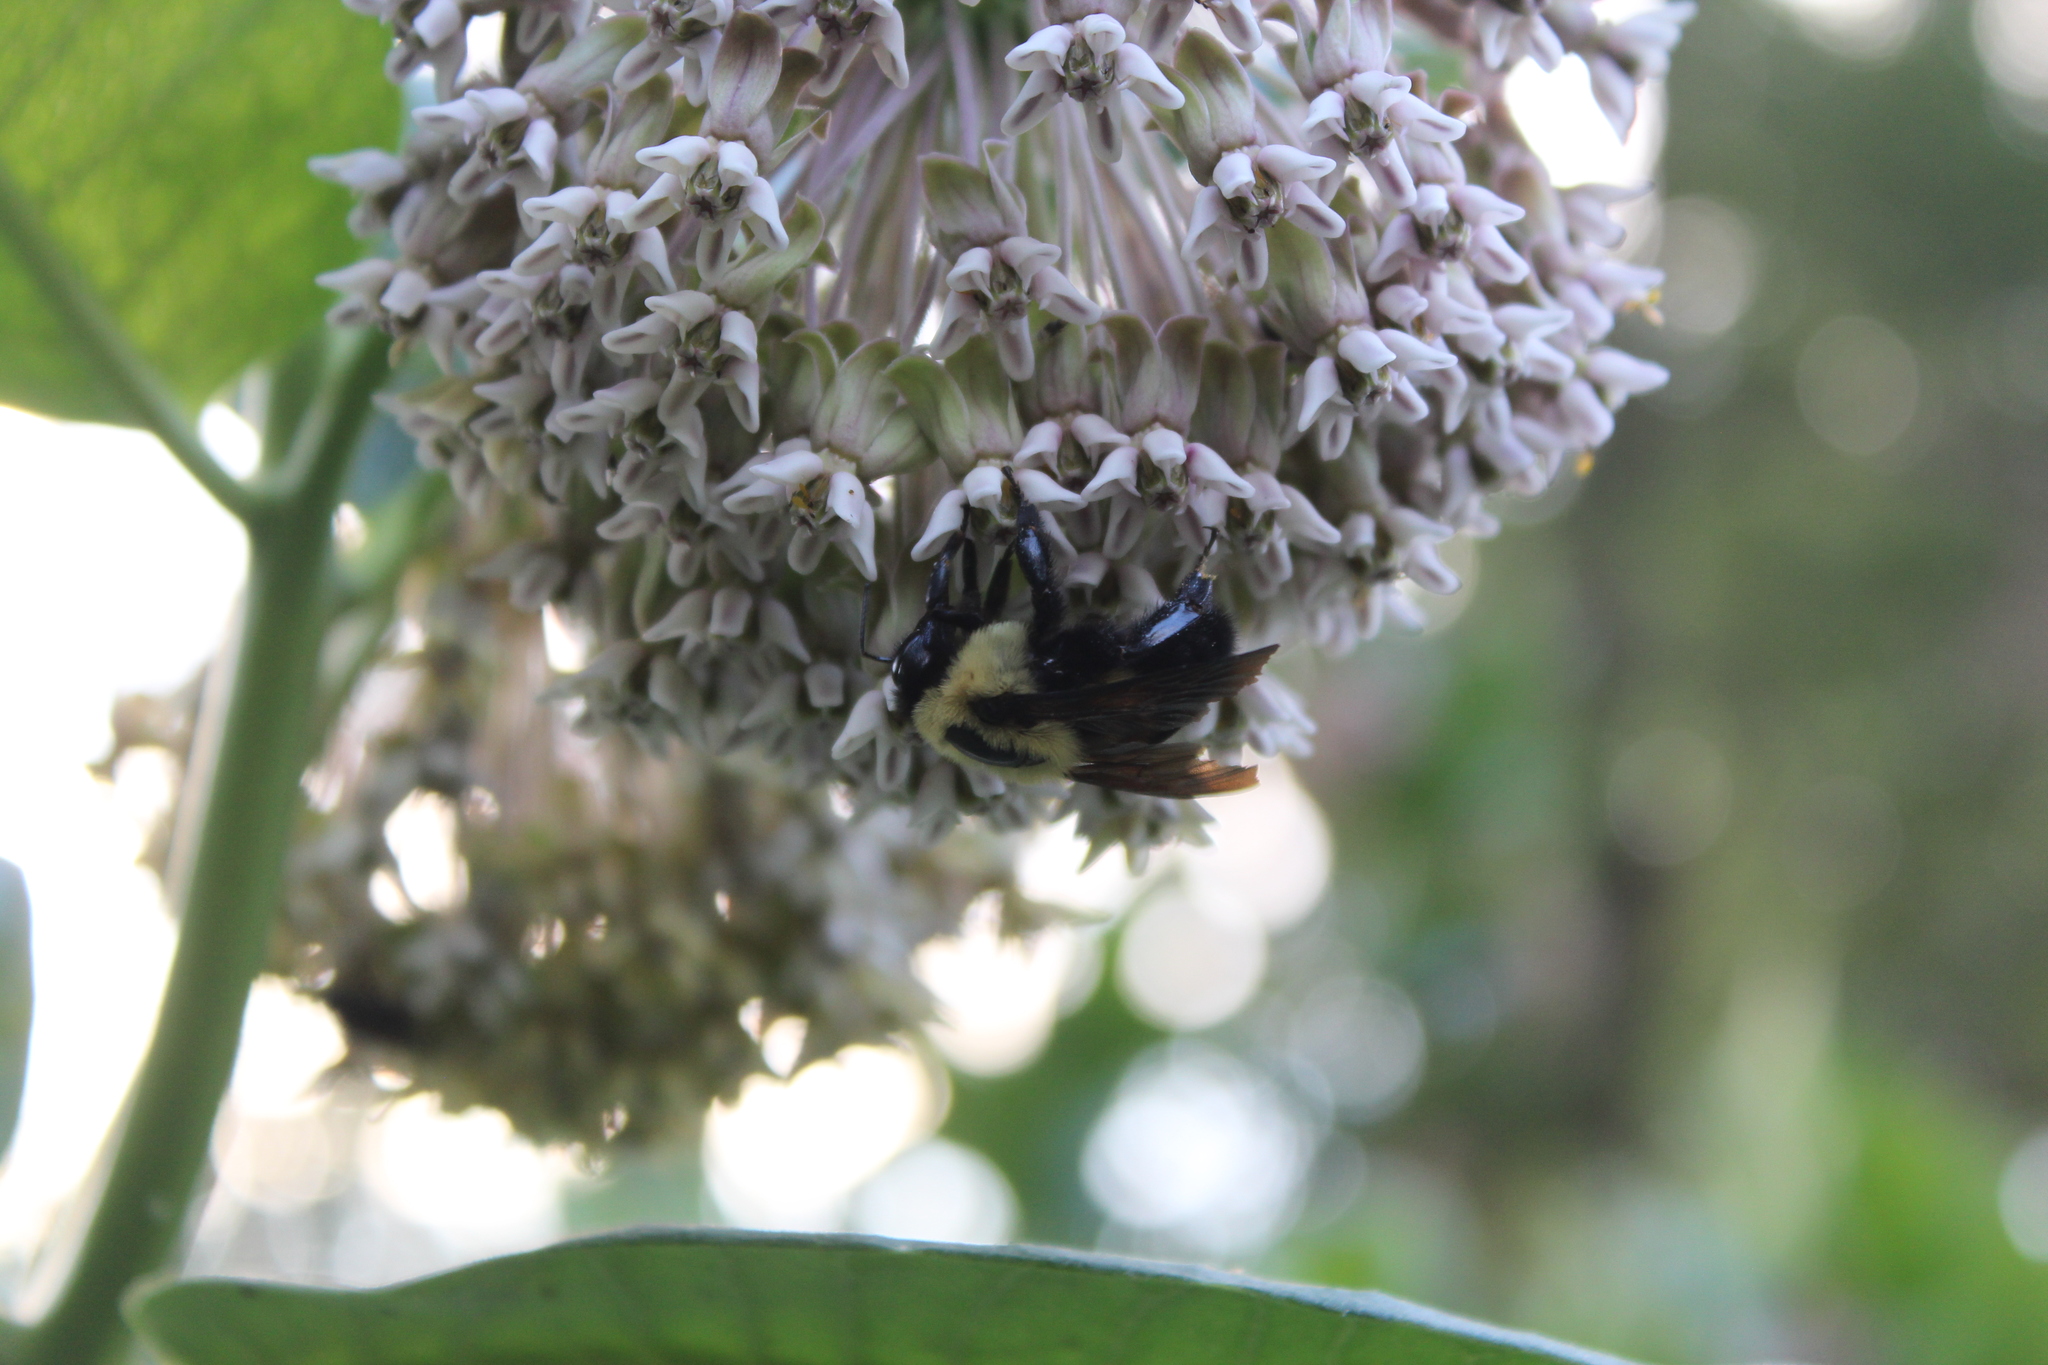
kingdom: Animalia
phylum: Arthropoda
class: Insecta
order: Hymenoptera
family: Apidae
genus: Bombus
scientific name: Bombus griseocollis
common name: Brown-belted bumble bee
